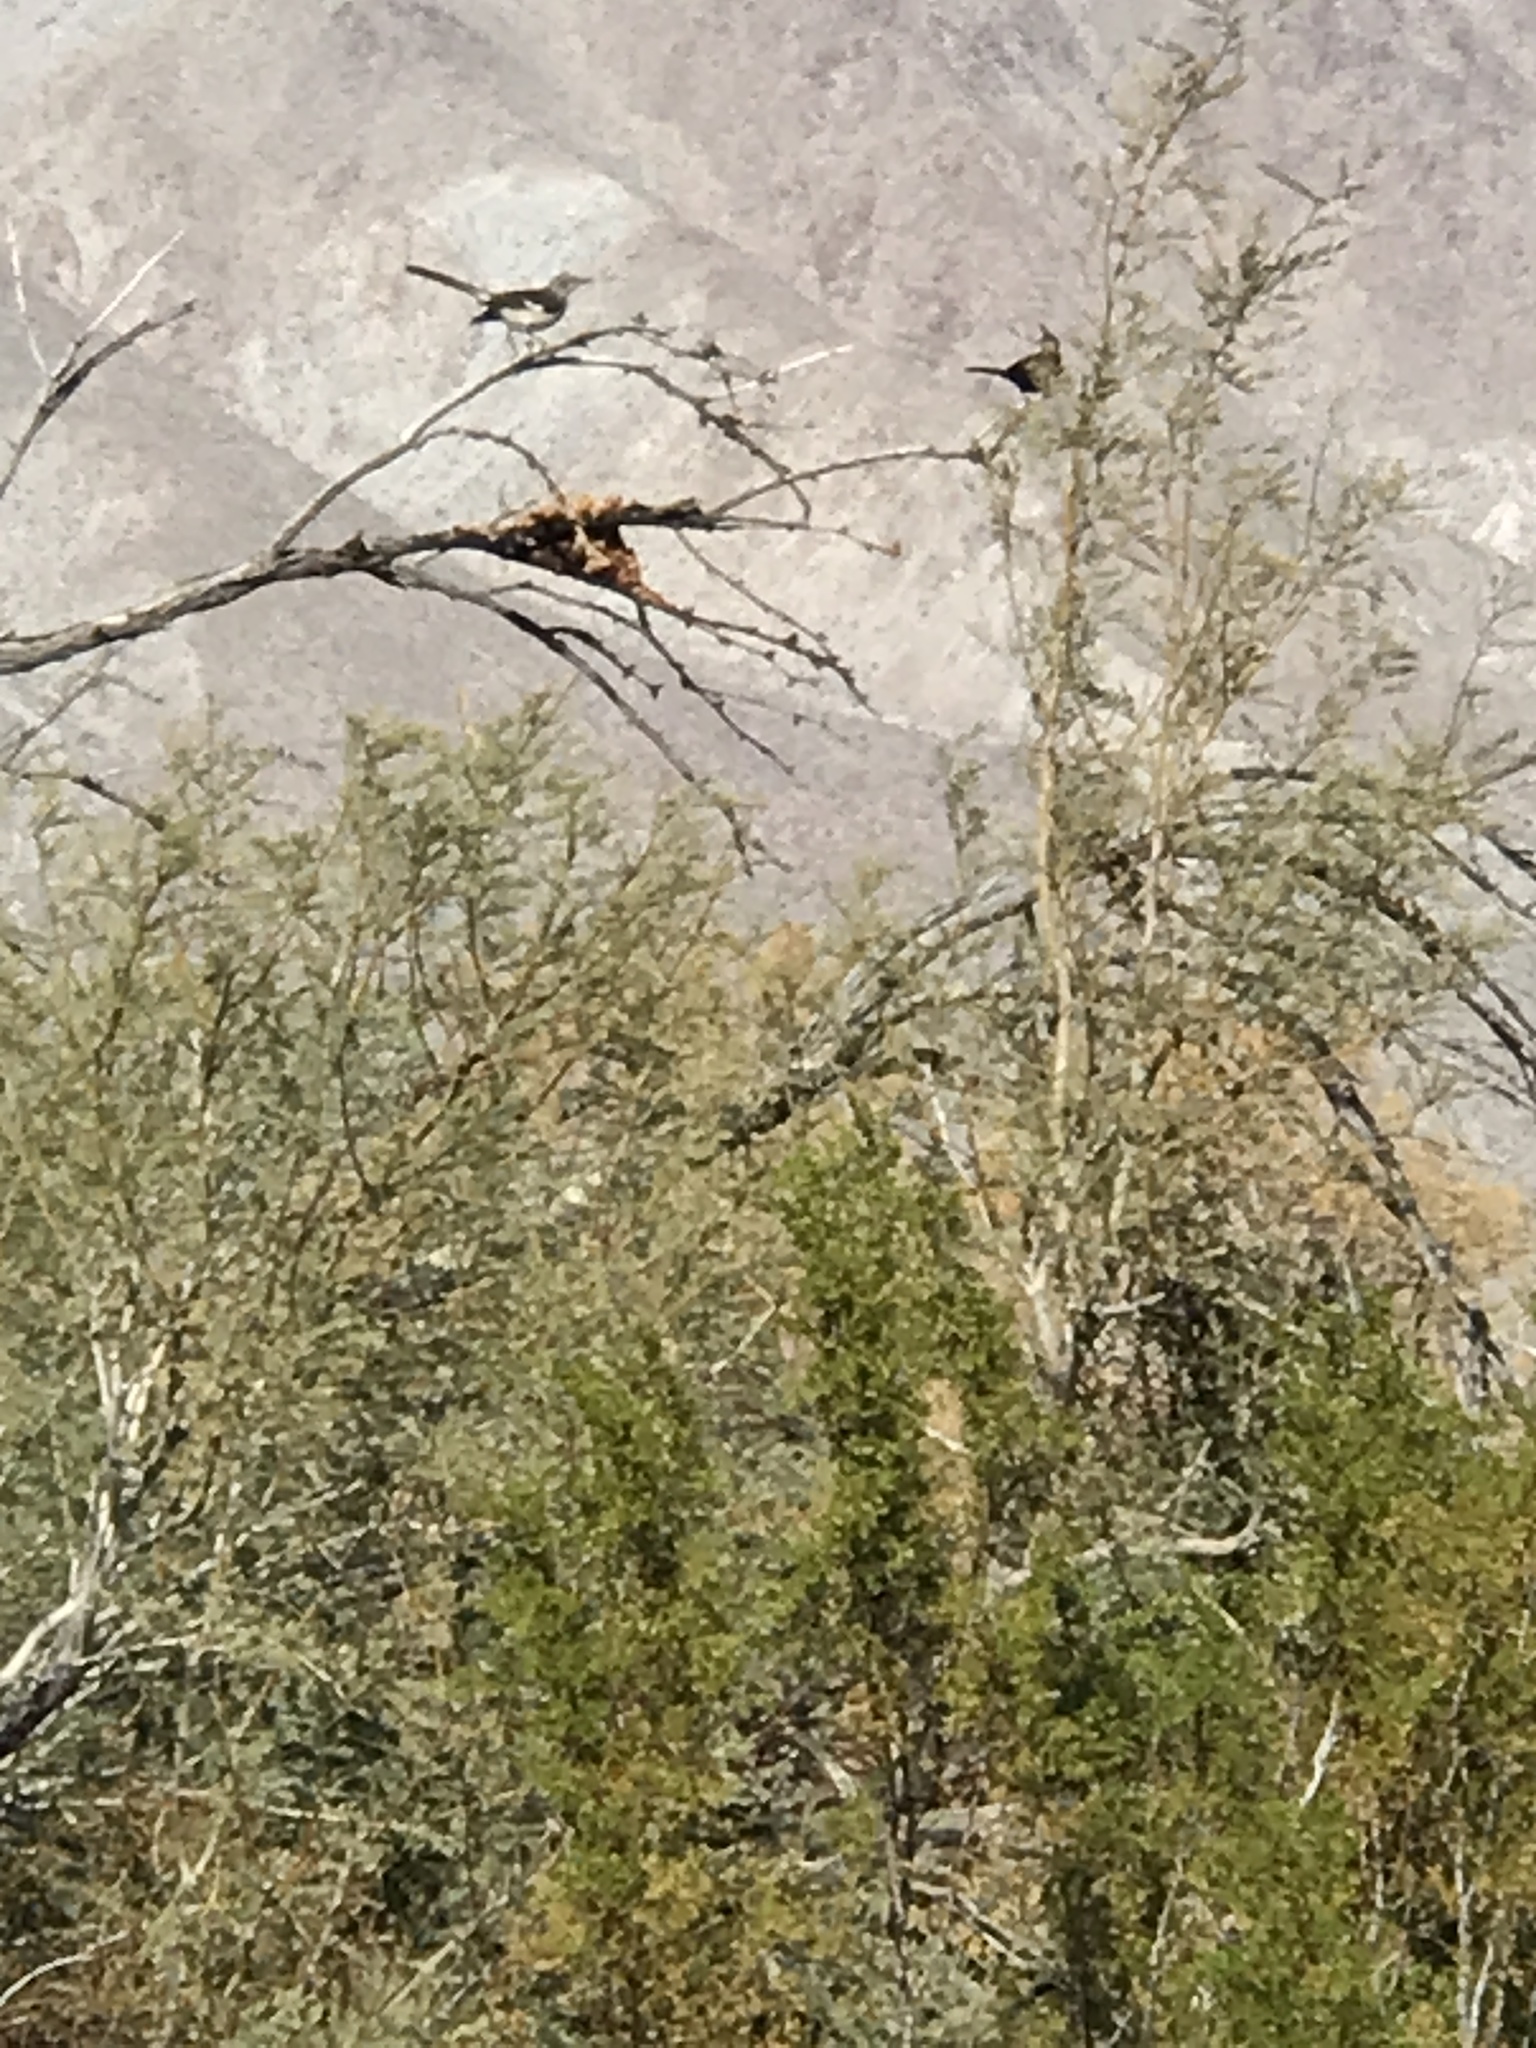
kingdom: Animalia
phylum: Chordata
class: Aves
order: Passeriformes
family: Mimidae
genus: Mimus
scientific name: Mimus polyglottos
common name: Northern mockingbird
